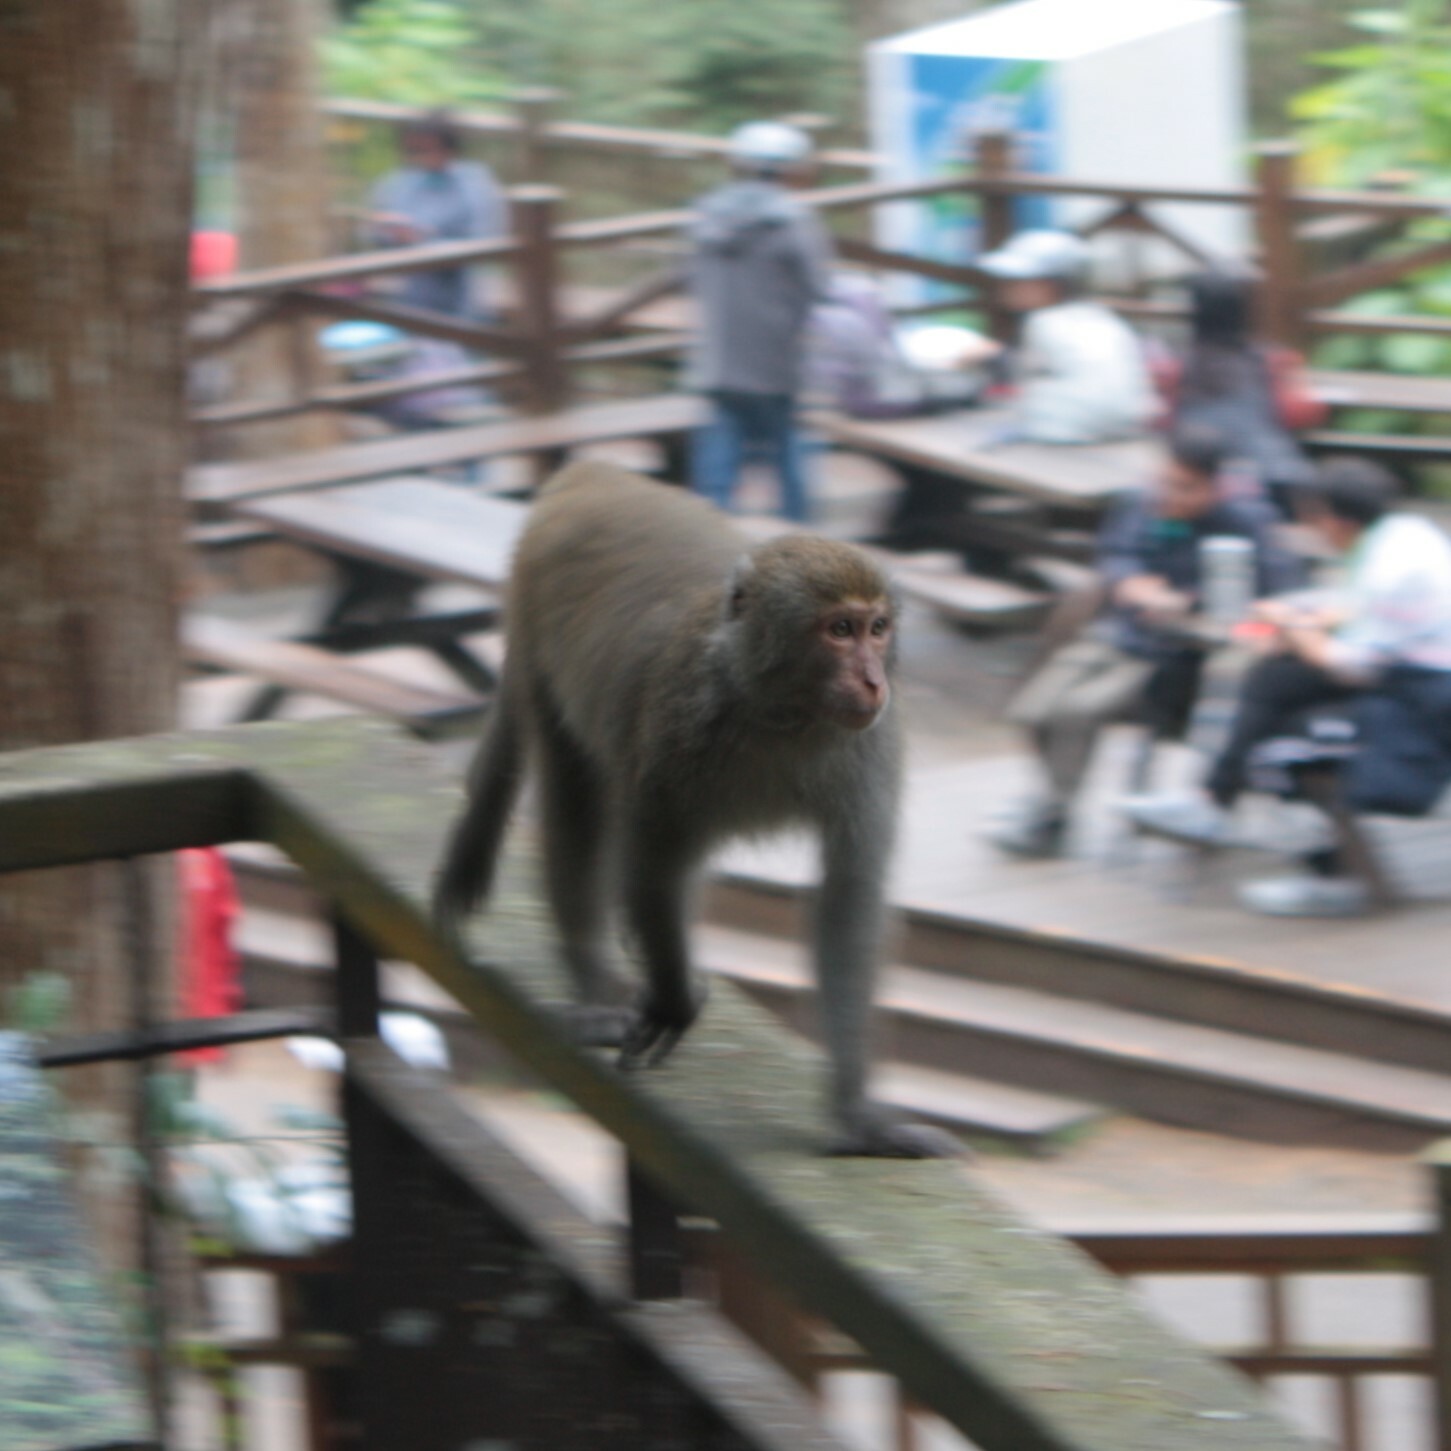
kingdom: Animalia
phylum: Chordata
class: Mammalia
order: Primates
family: Cercopithecidae
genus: Macaca
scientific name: Macaca cyclopis
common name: Formosan rock macaque
